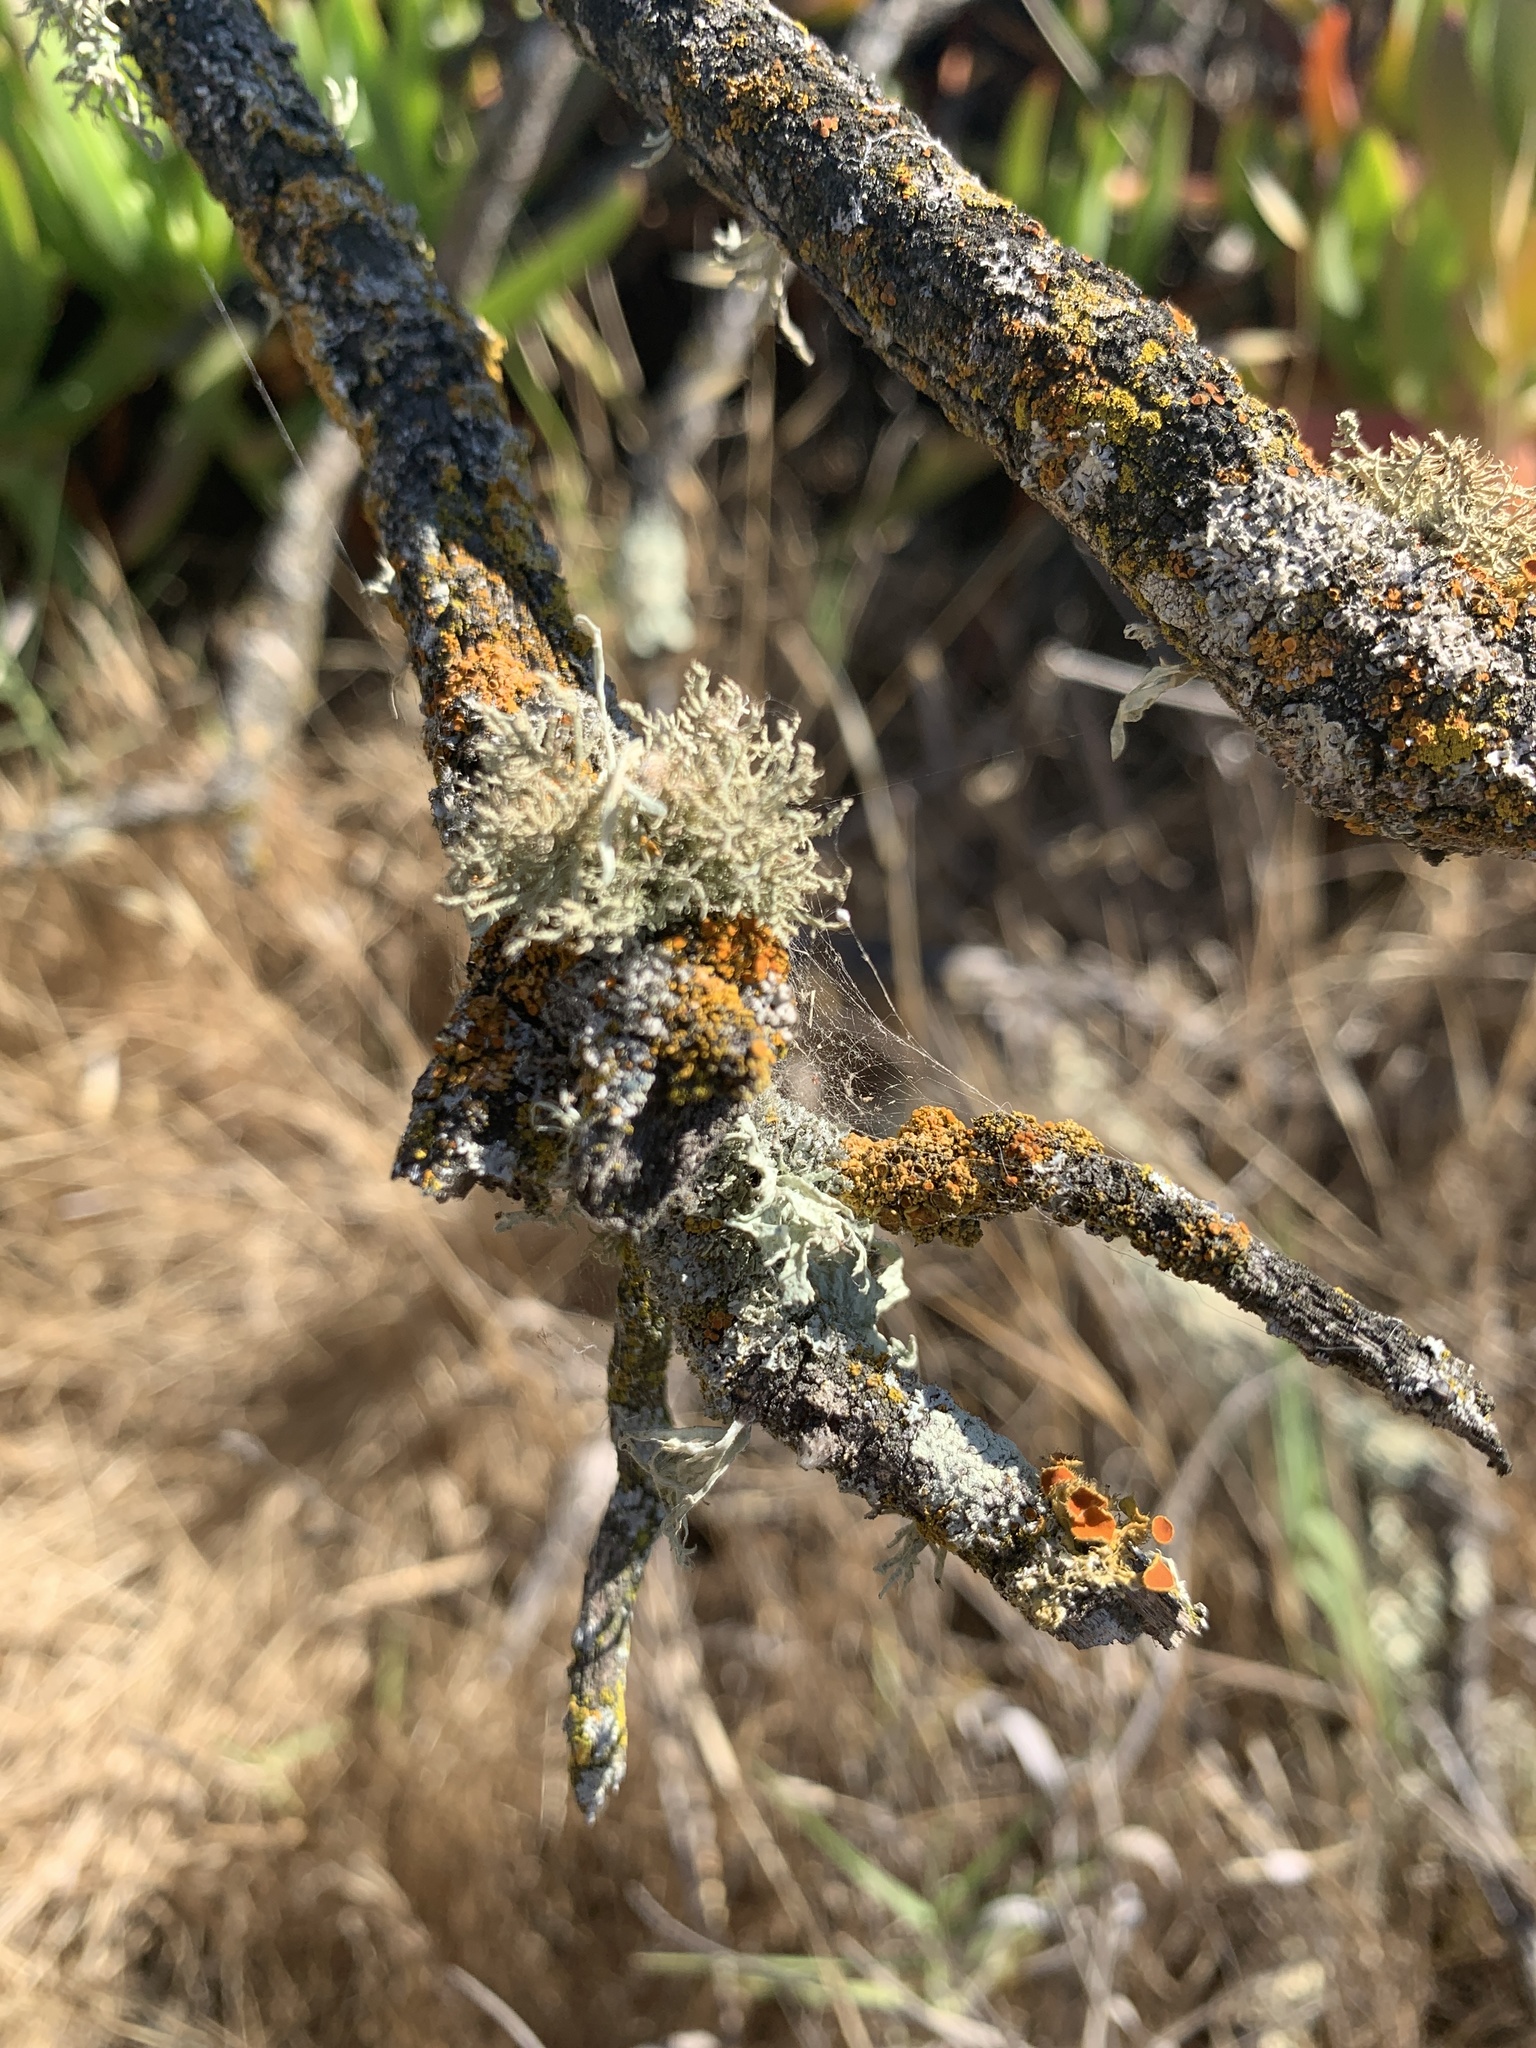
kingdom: Fungi
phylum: Ascomycota
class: Lecanoromycetes
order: Teloschistales
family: Teloschistaceae
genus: Niorma
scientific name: Niorma chrysophthalma
